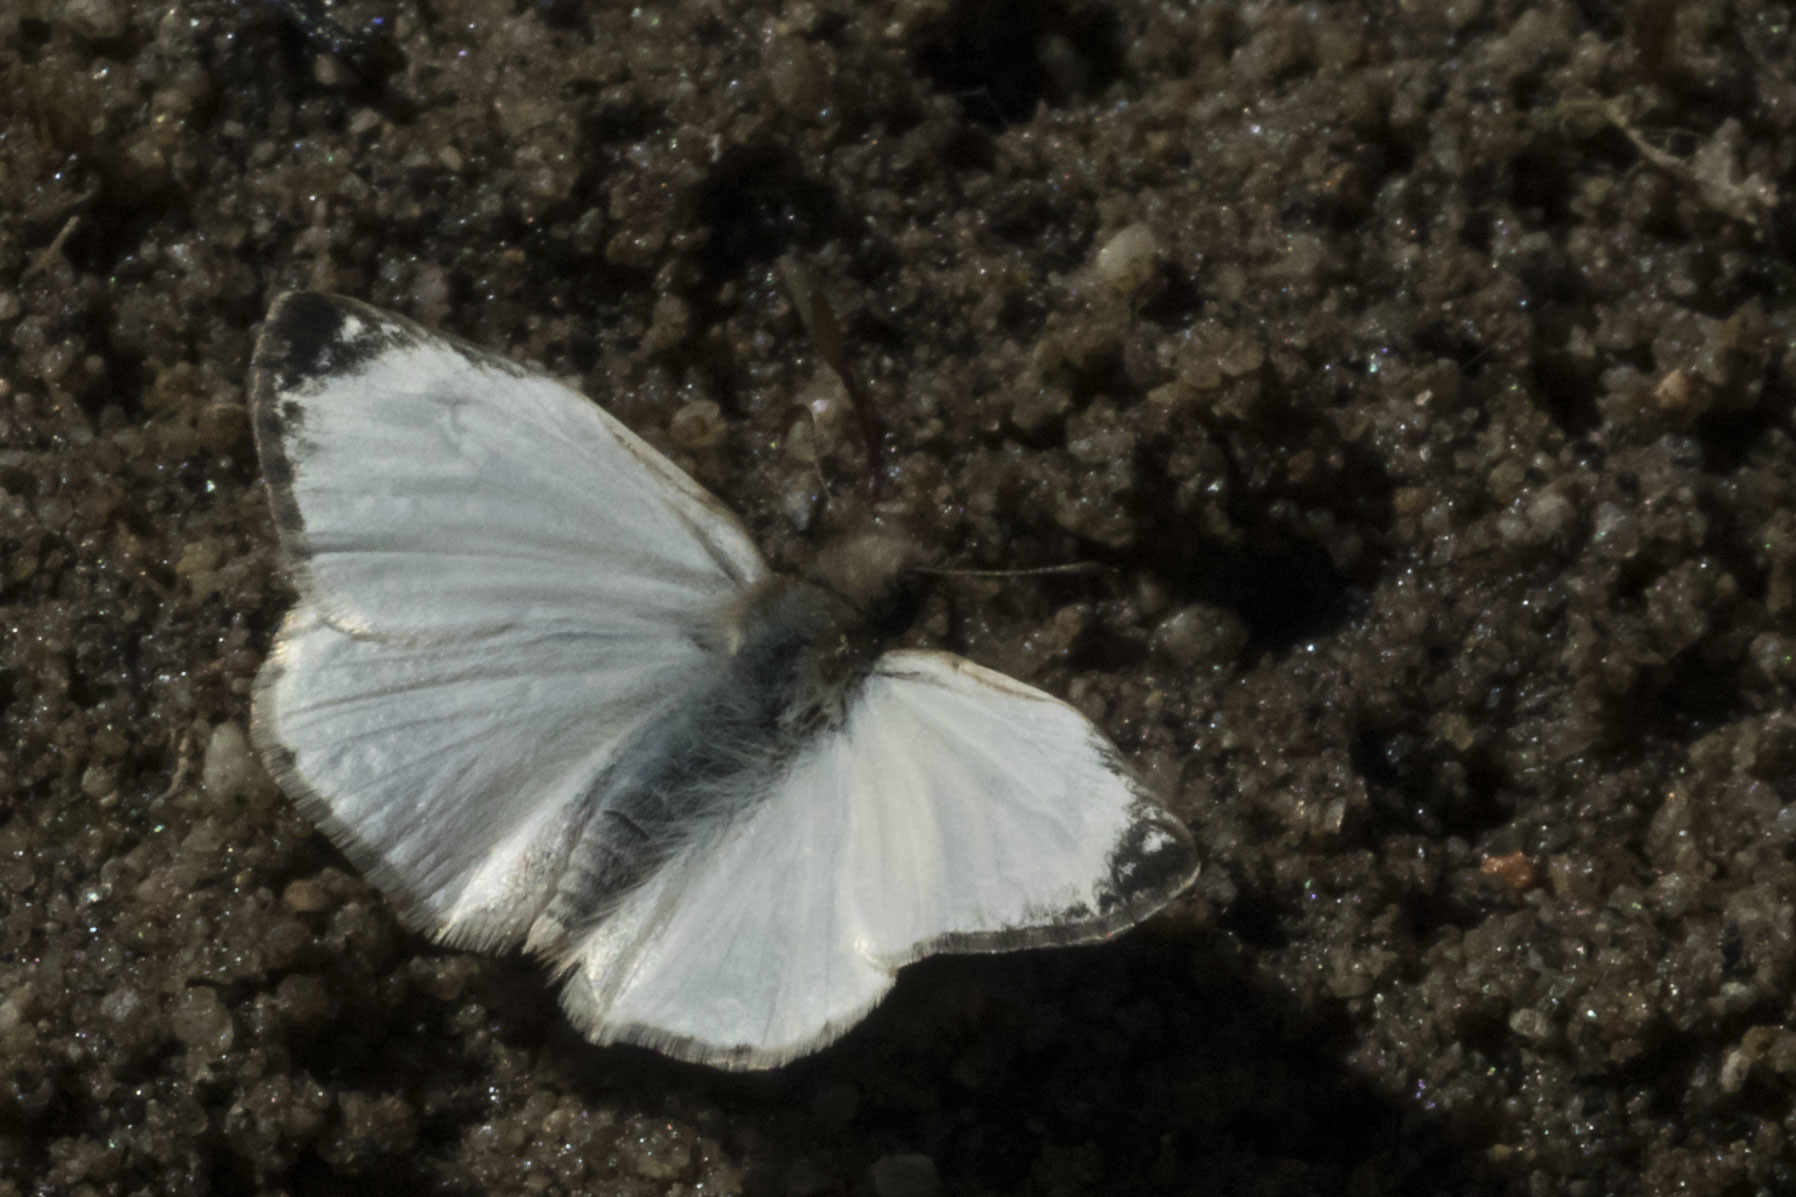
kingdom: Animalia
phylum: Arthropoda
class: Insecta
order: Lepidoptera
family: Hesperiidae
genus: Heliopetes
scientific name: Heliopetes laviana
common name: Laviana white-skipper
